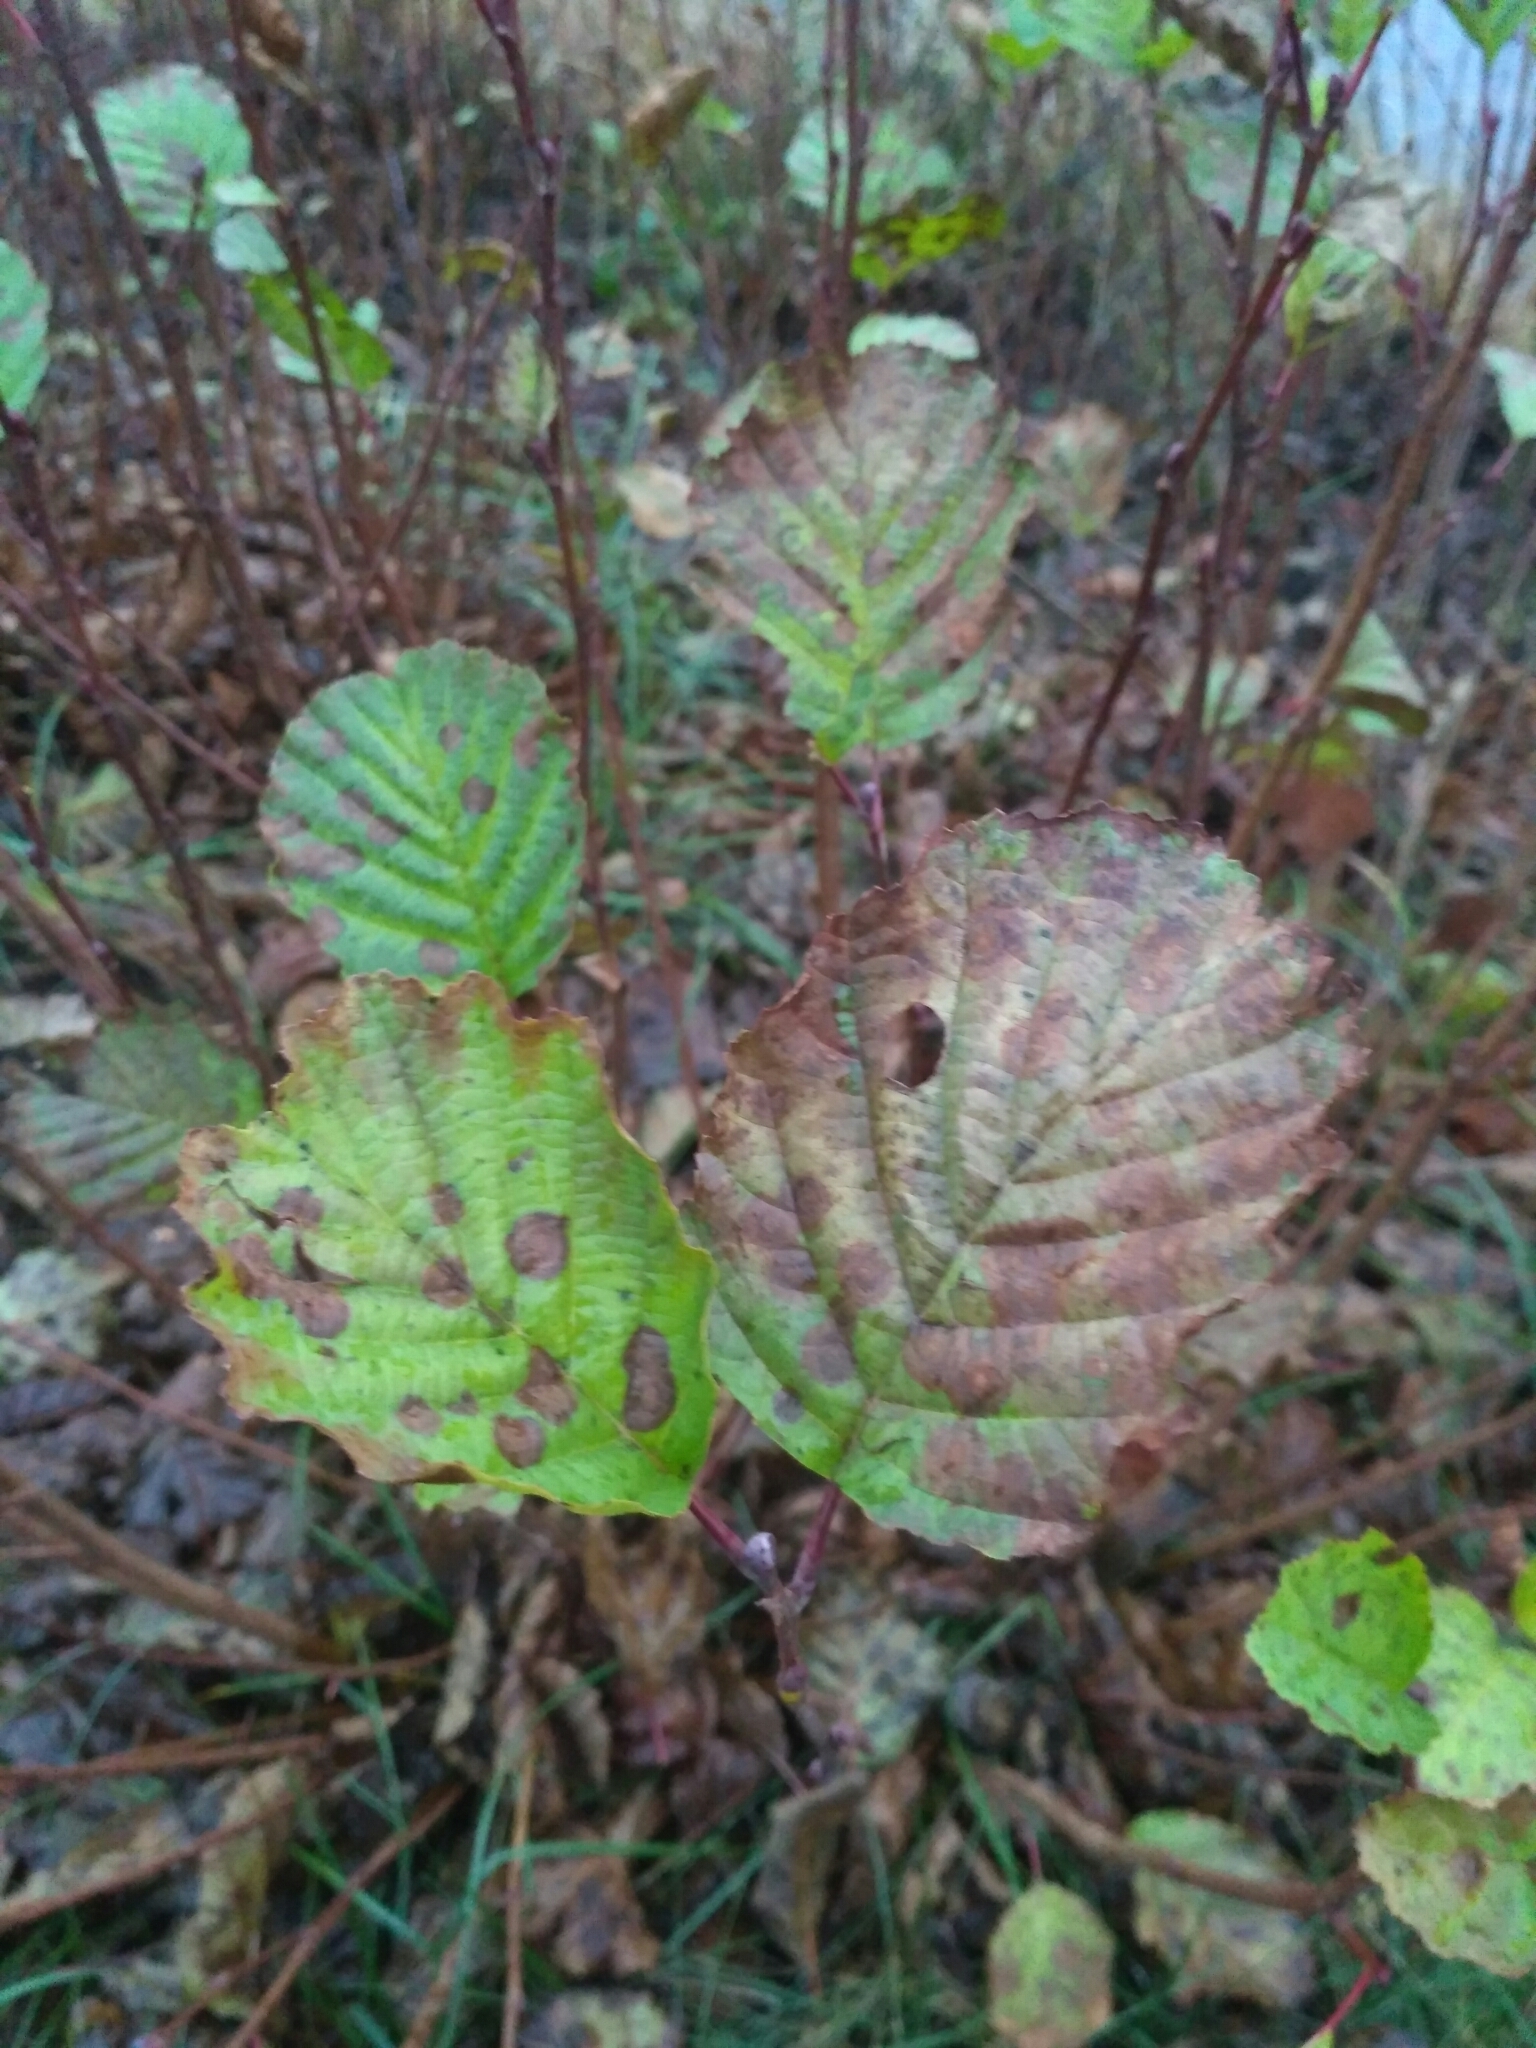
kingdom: Plantae
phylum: Tracheophyta
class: Magnoliopsida
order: Fagales
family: Betulaceae
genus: Alnus
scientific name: Alnus glutinosa
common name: Black alder
